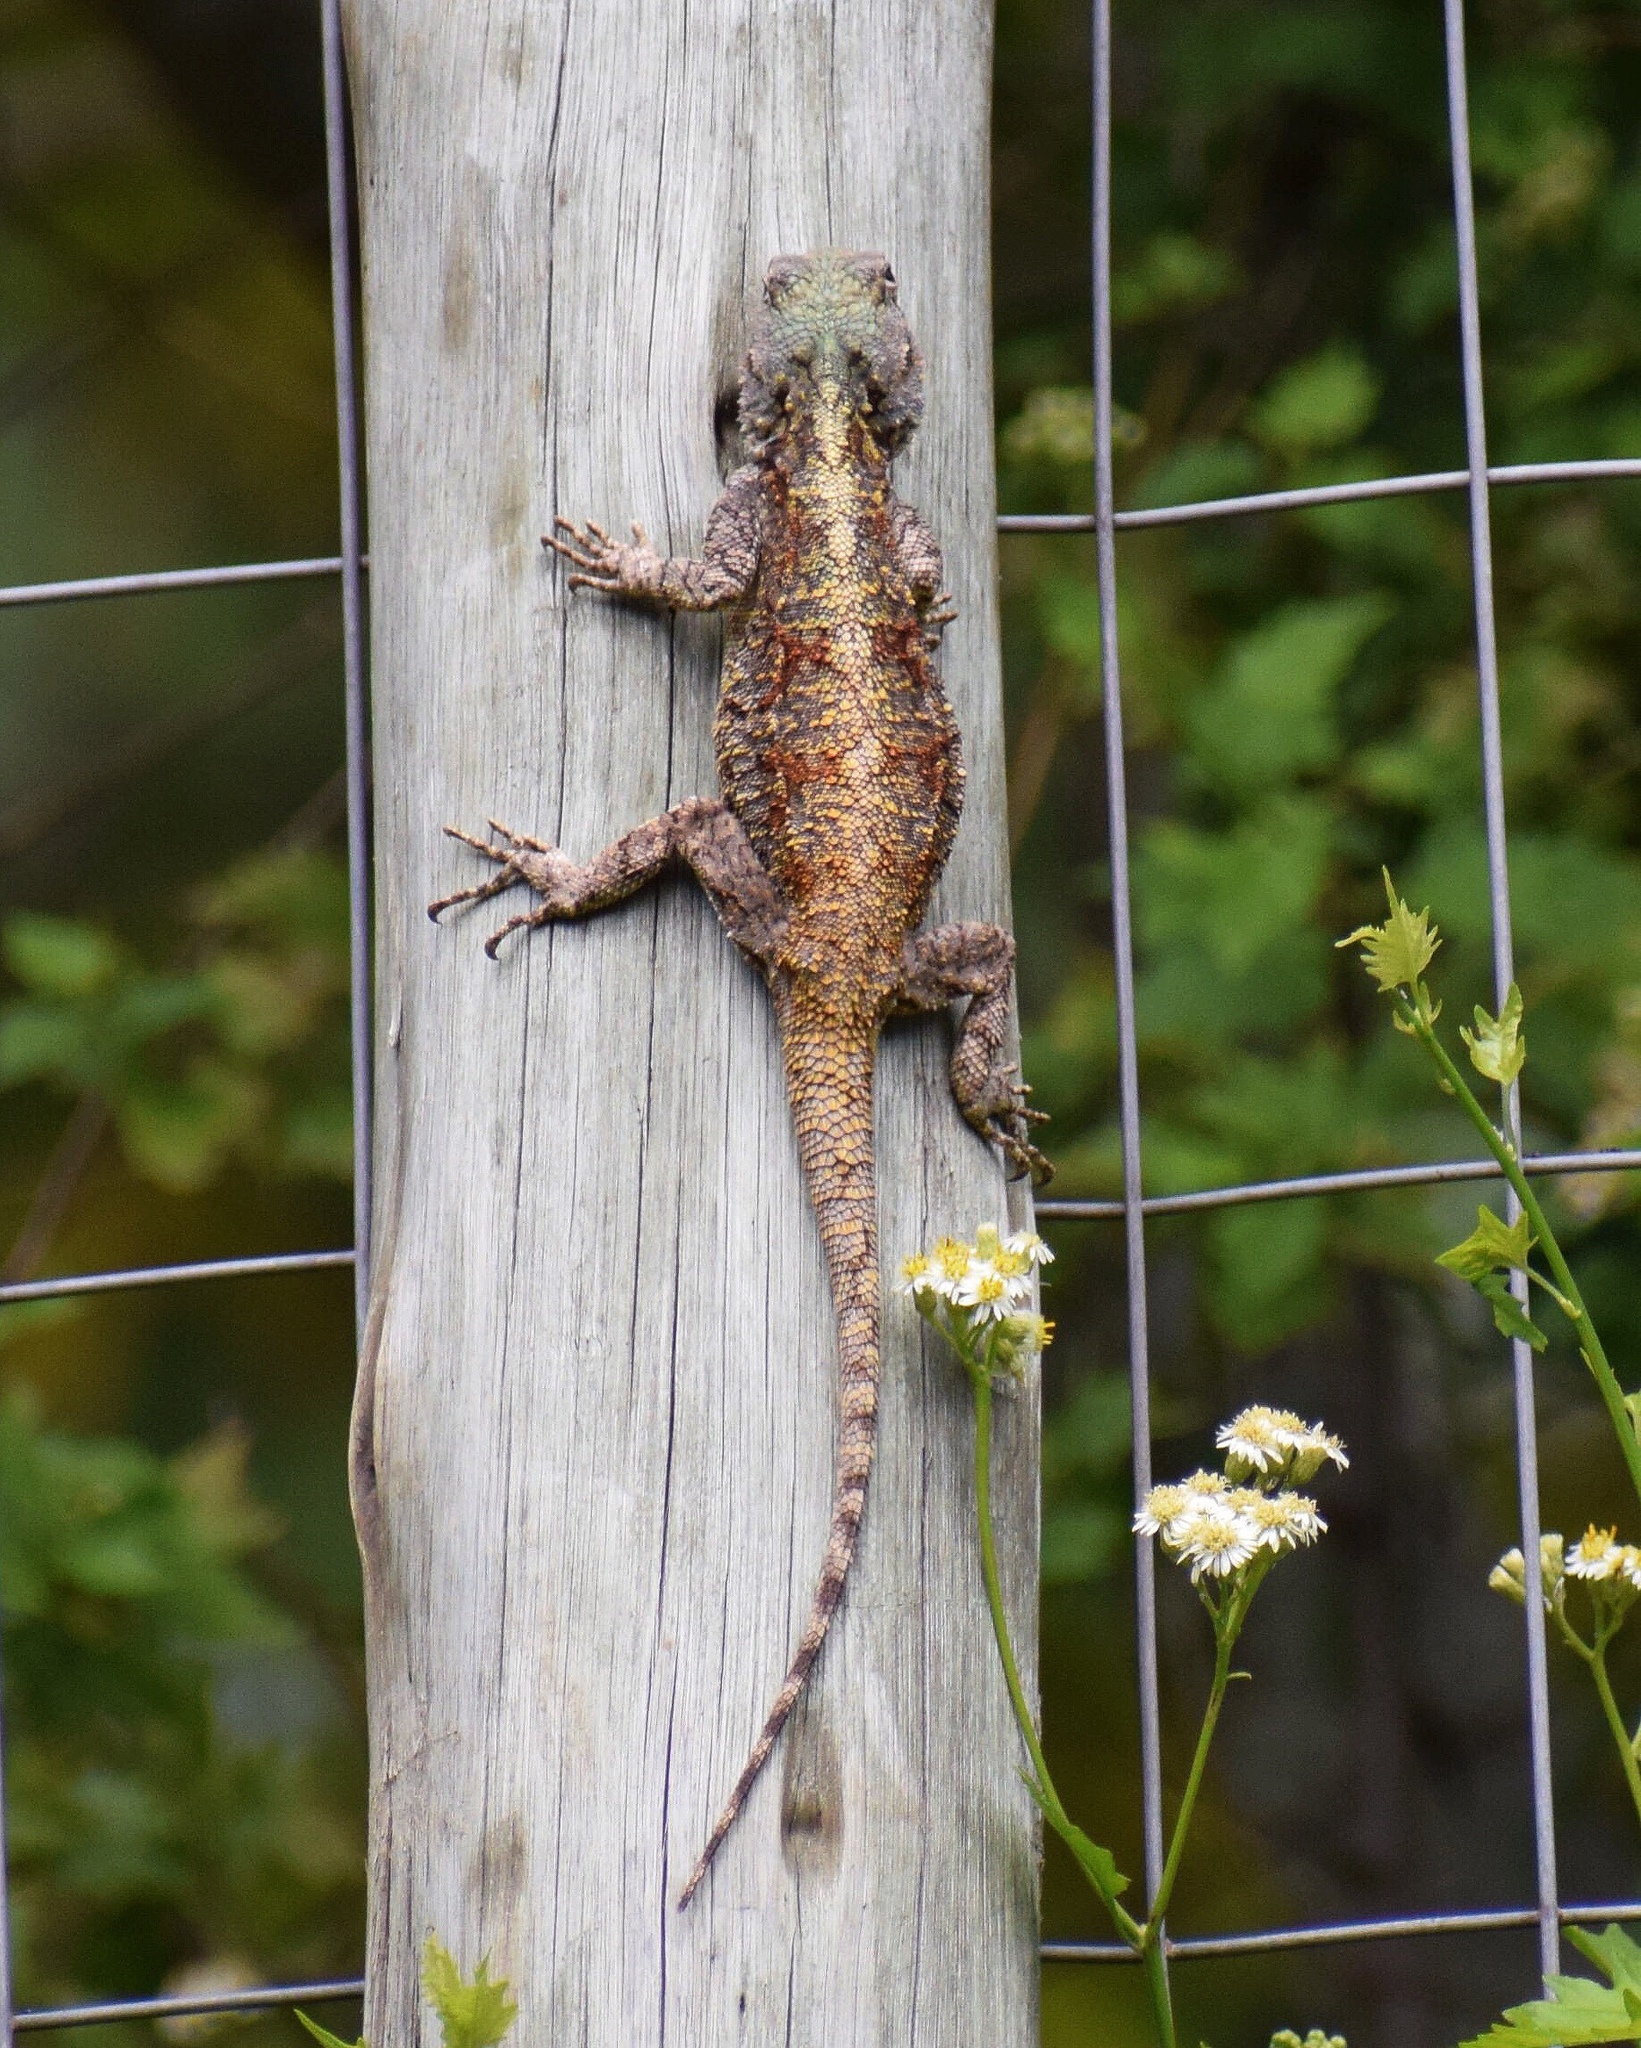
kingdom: Animalia
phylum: Chordata
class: Squamata
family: Agamidae
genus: Acanthocercus
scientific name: Acanthocercus atricollis
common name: Southern tree agama
